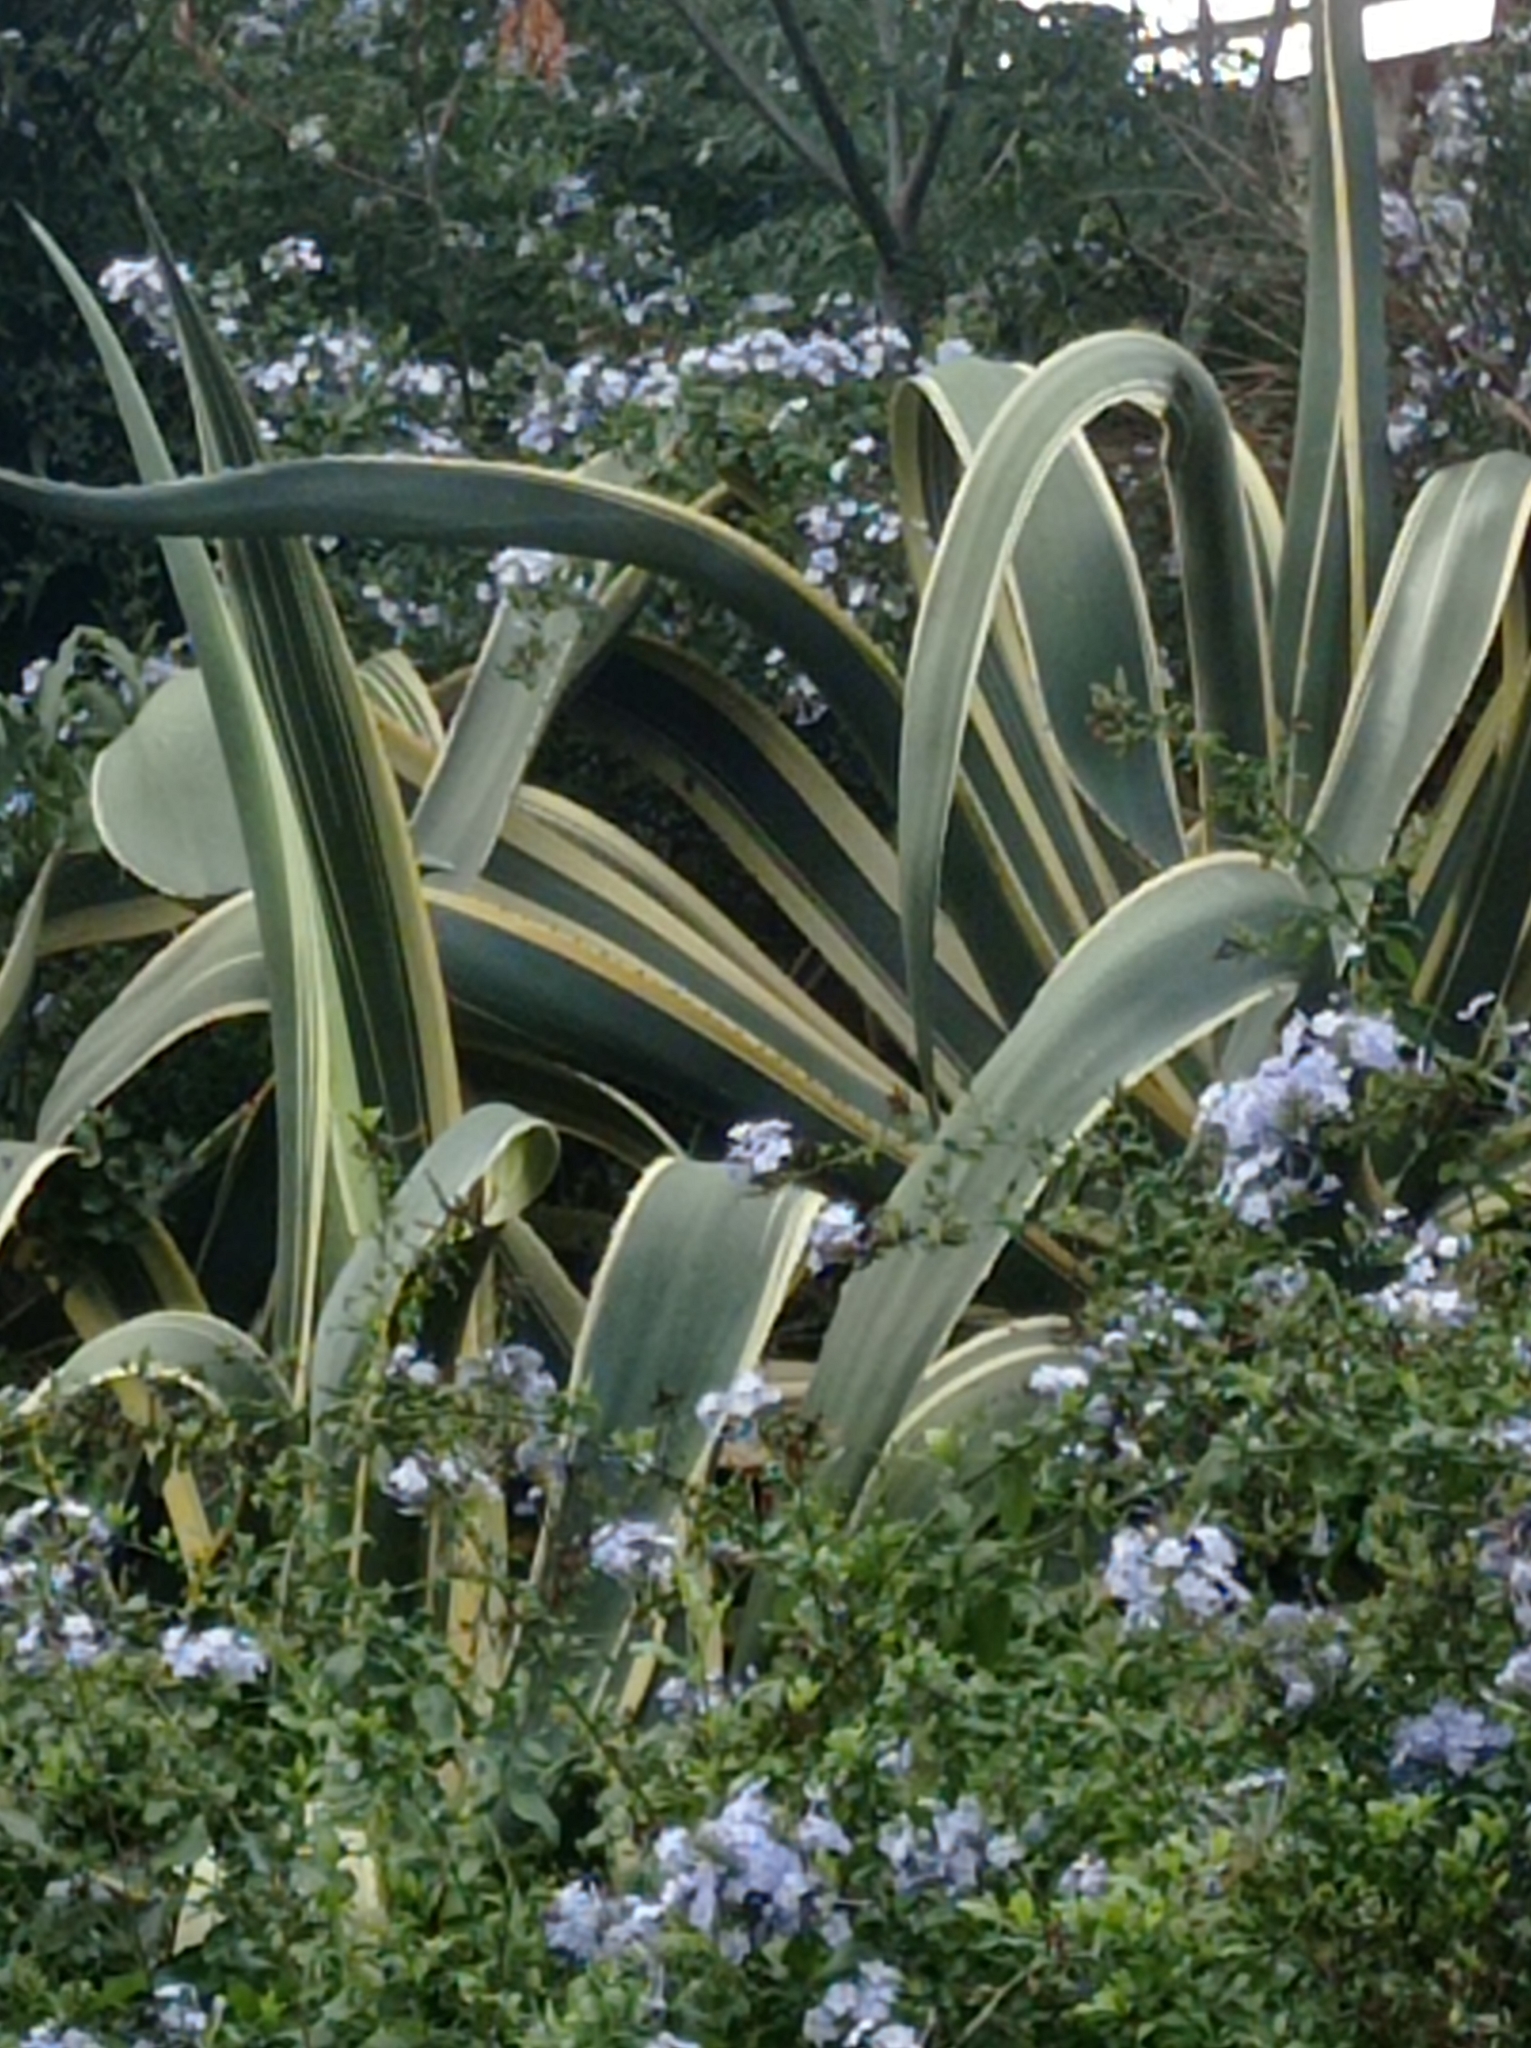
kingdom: Plantae
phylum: Tracheophyta
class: Liliopsida
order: Asparagales
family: Asparagaceae
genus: Agave
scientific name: Agave americana
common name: Centuryplant
